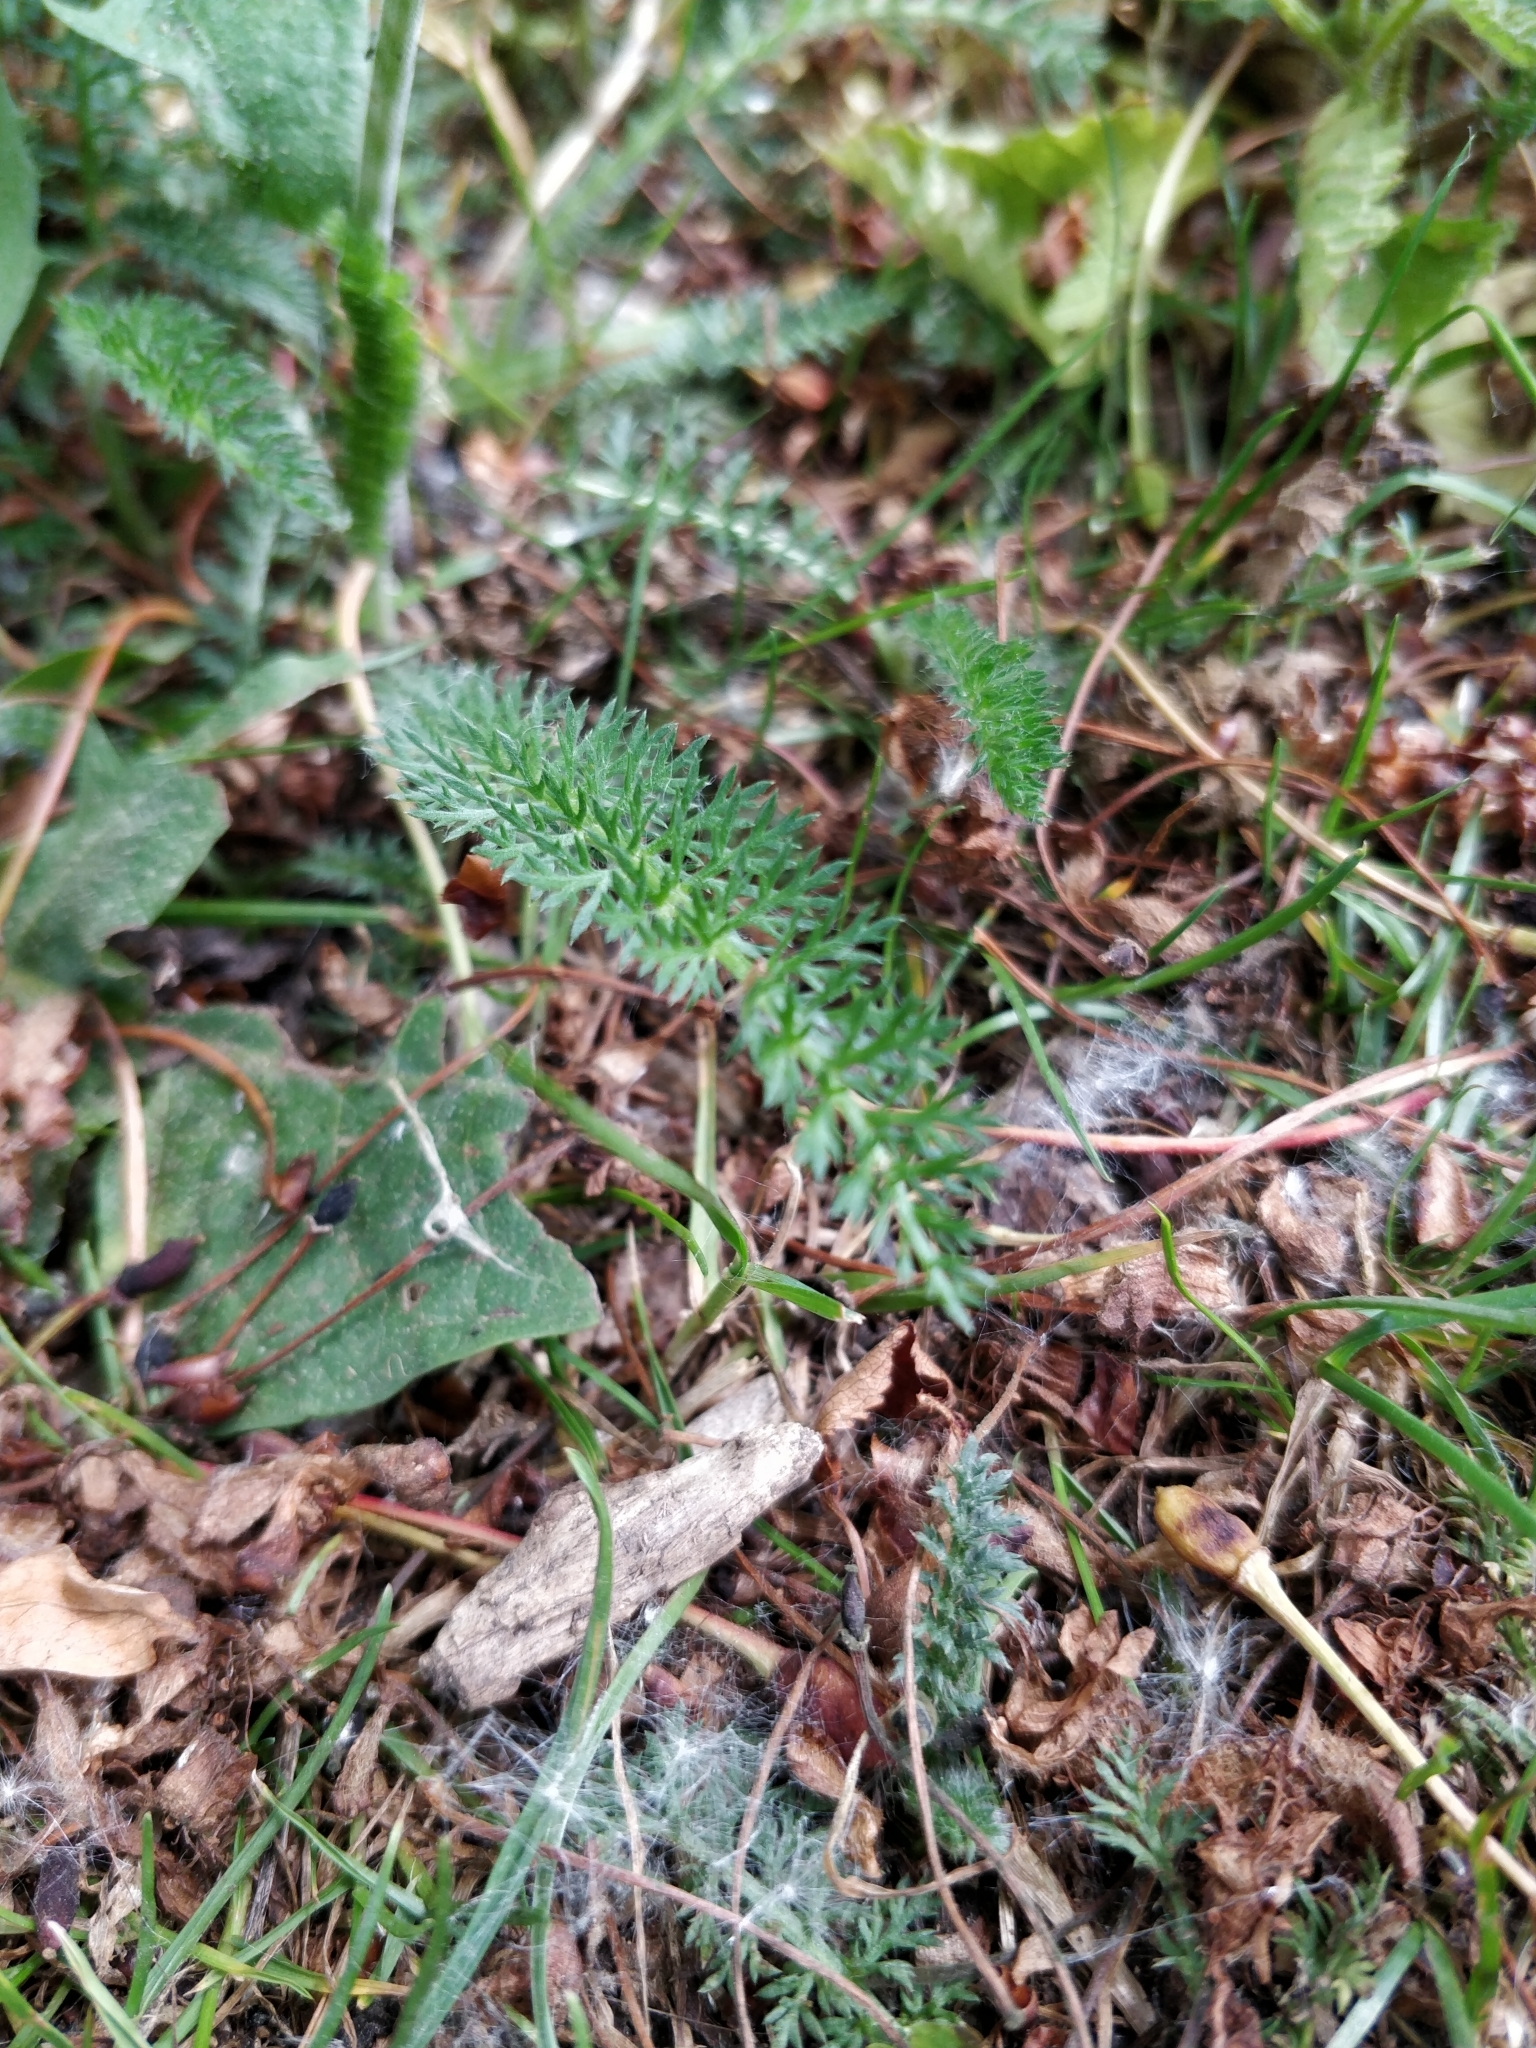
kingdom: Plantae
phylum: Tracheophyta
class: Magnoliopsida
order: Asterales
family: Asteraceae
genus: Achillea
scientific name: Achillea millefolium
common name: Yarrow
